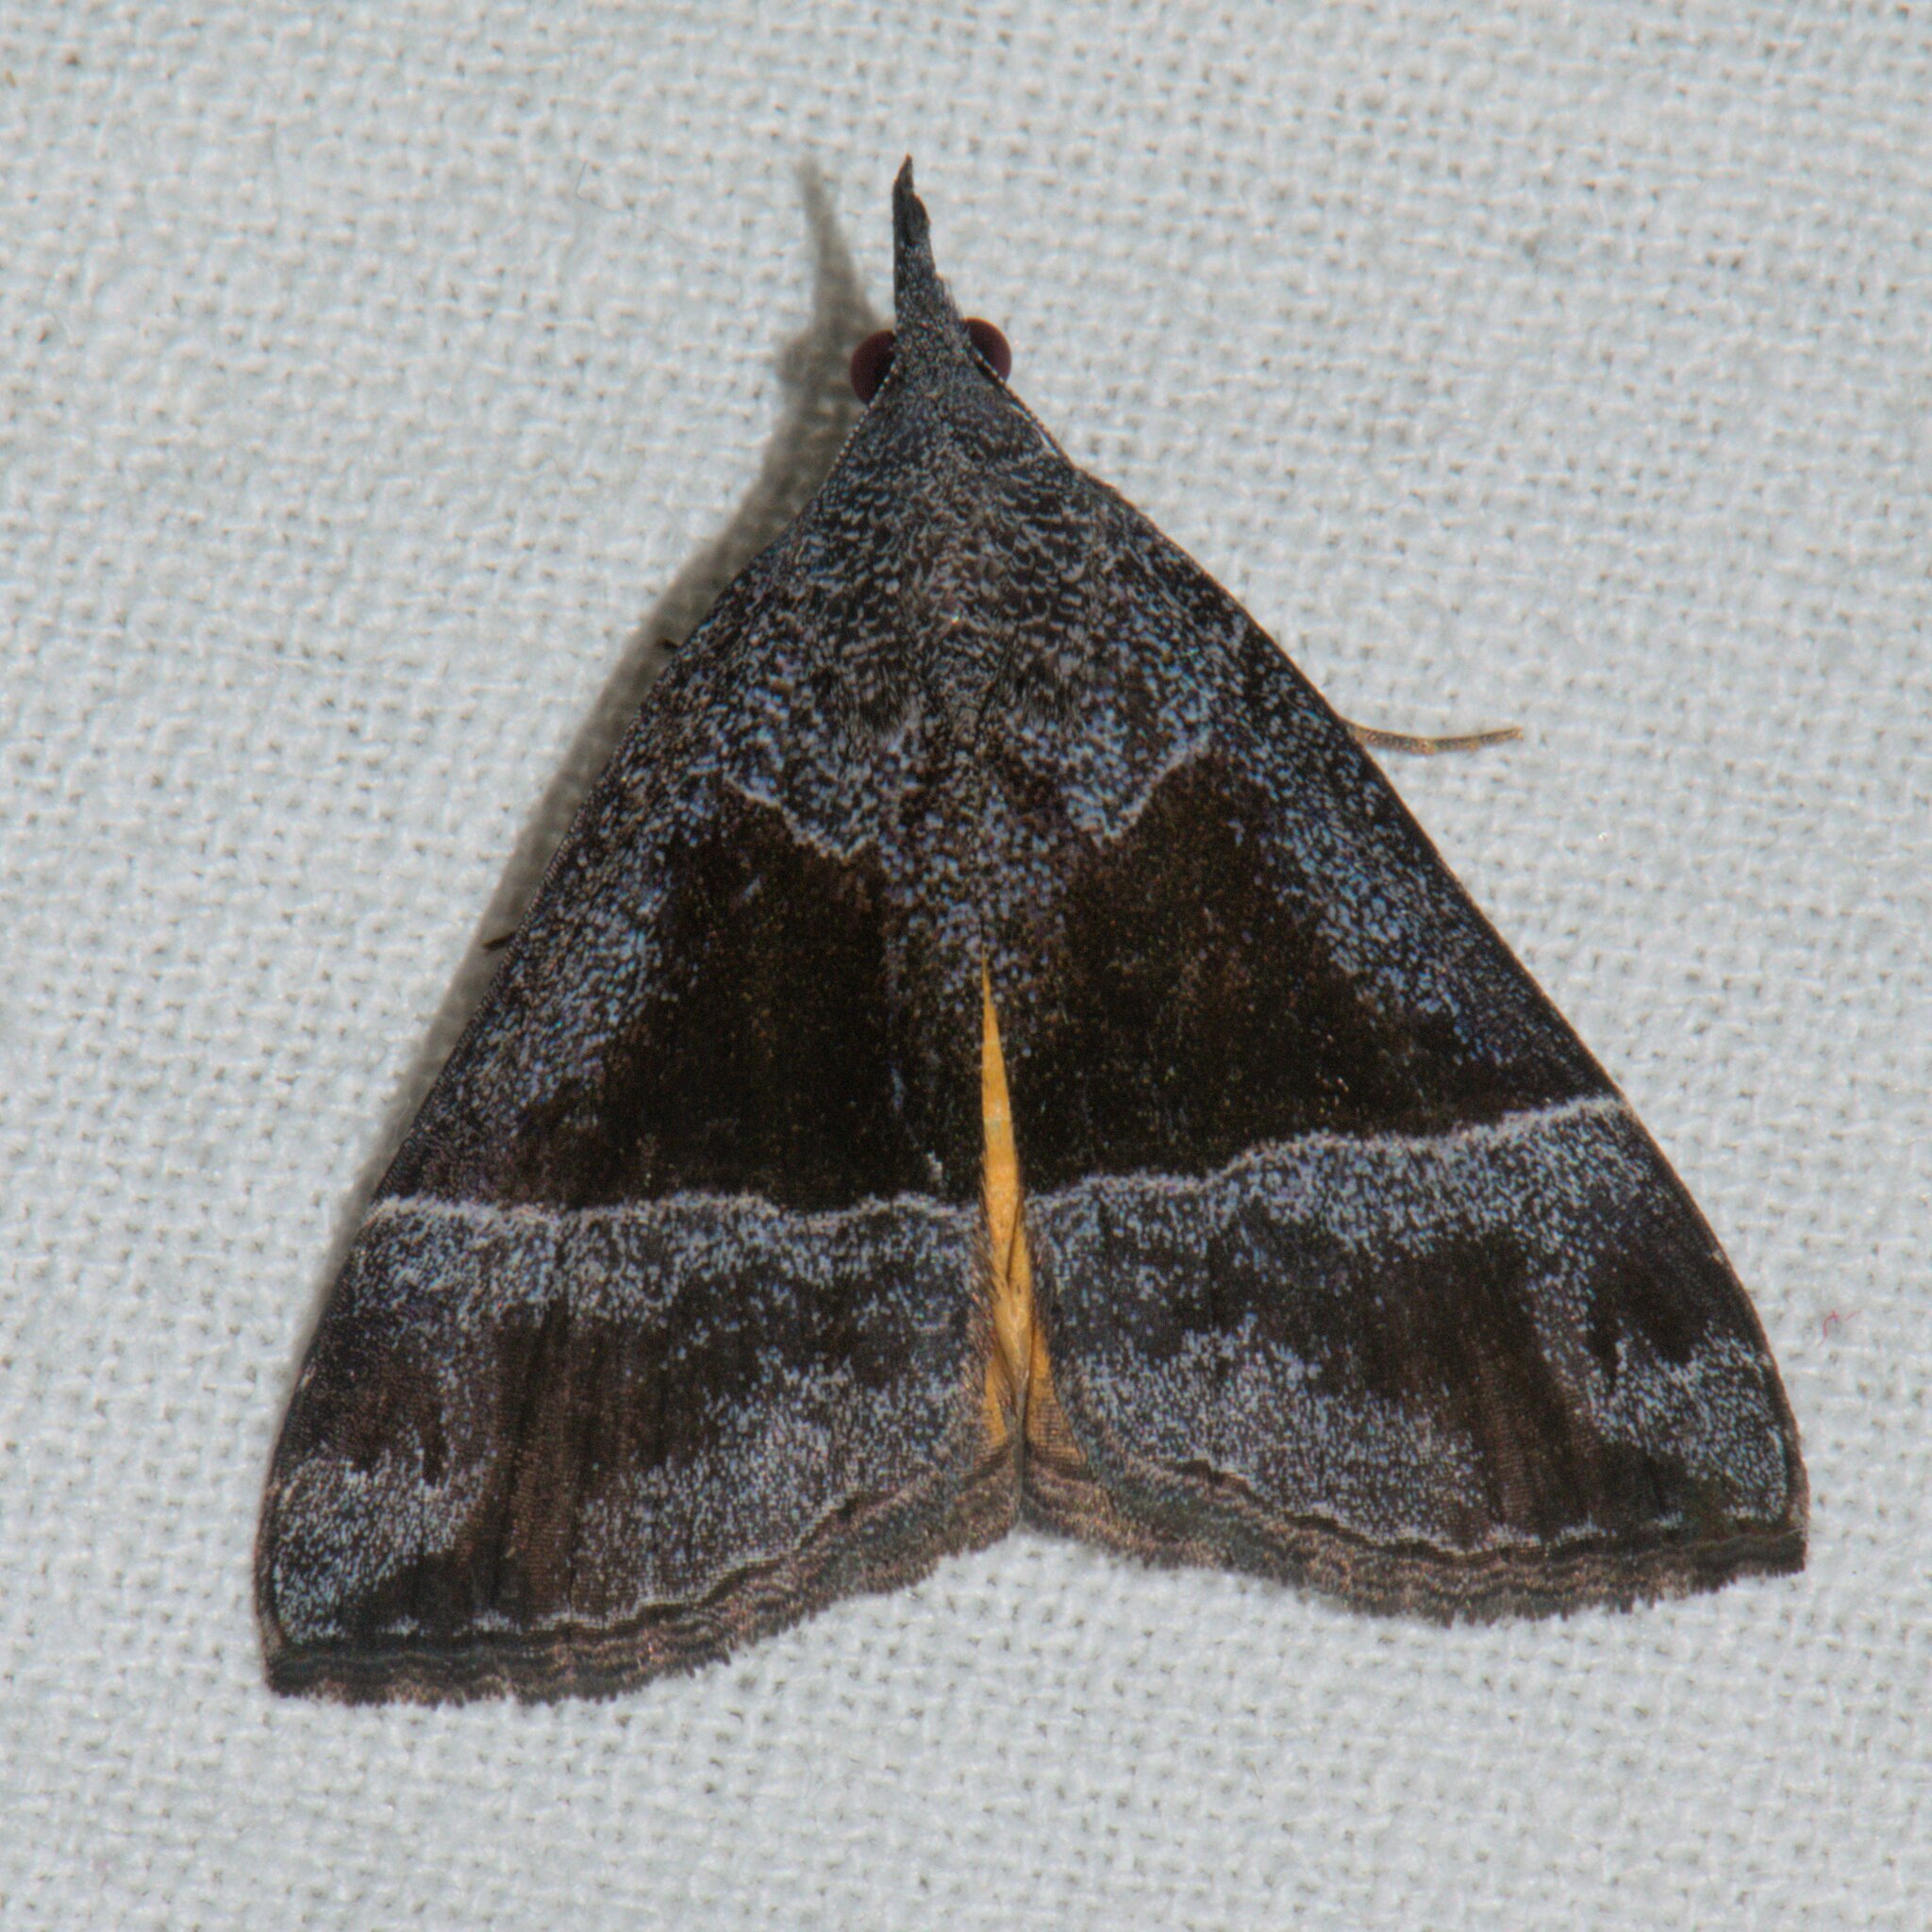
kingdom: Animalia
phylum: Arthropoda
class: Insecta
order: Lepidoptera
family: Erebidae
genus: Hypena
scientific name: Hypena amica
